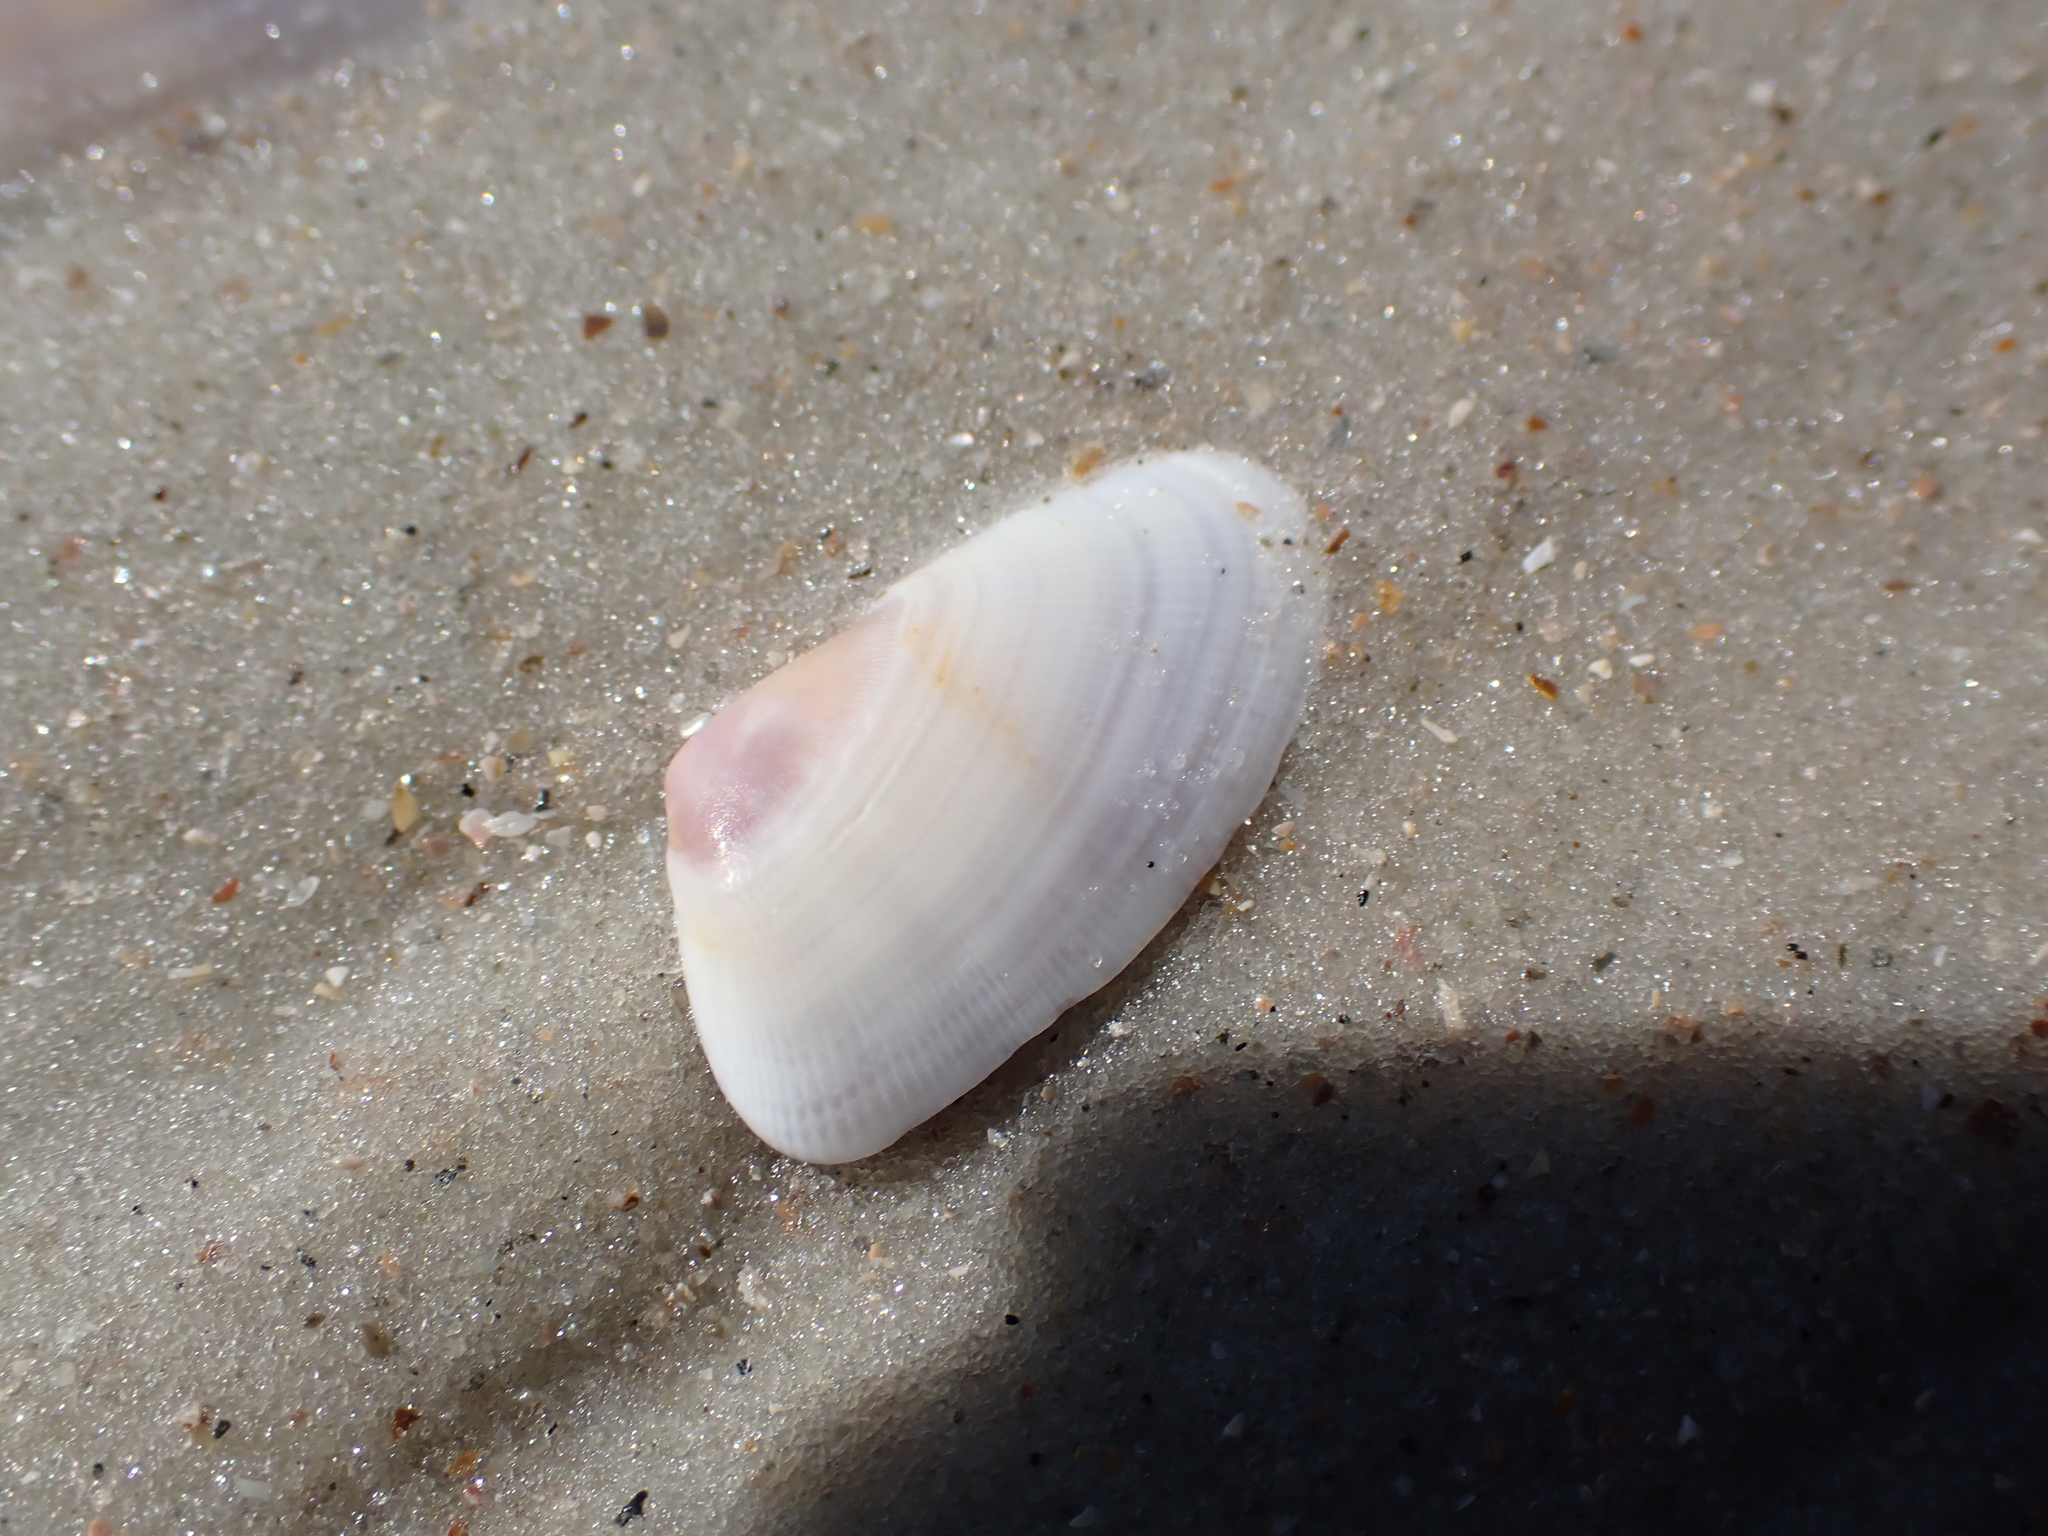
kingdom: Animalia
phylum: Mollusca
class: Bivalvia
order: Cardiida
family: Donacidae
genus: Donax
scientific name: Donax variabilis
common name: Butterfly shell
